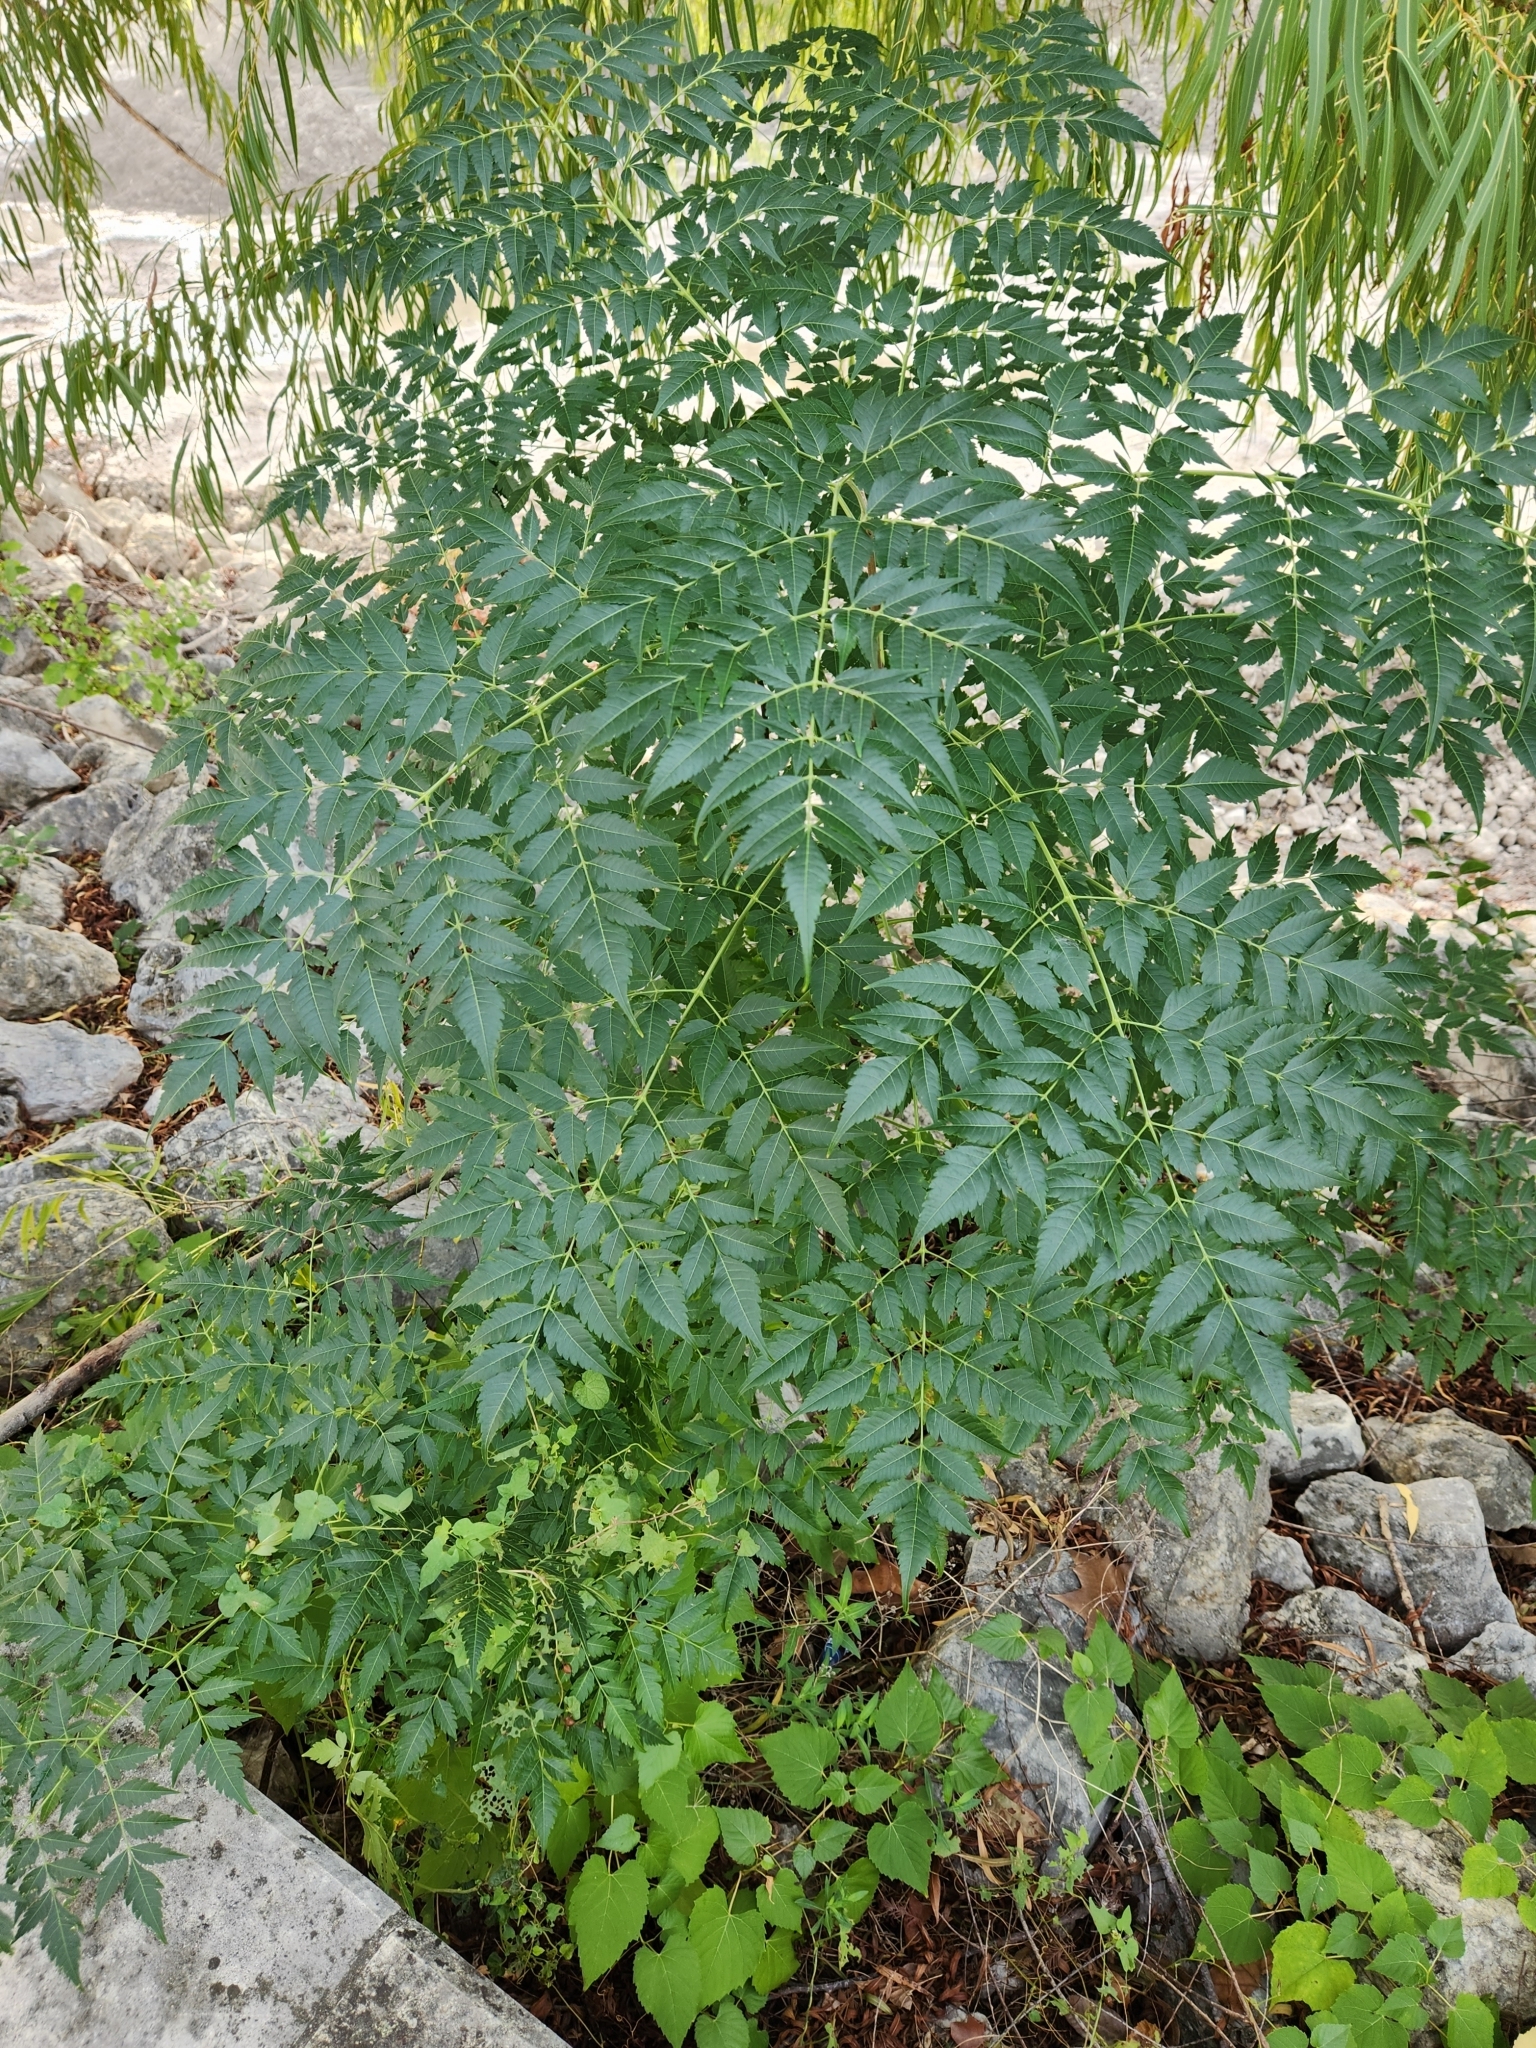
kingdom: Plantae
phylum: Tracheophyta
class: Magnoliopsida
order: Sapindales
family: Meliaceae
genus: Melia
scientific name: Melia azedarach
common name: Chinaberrytree
